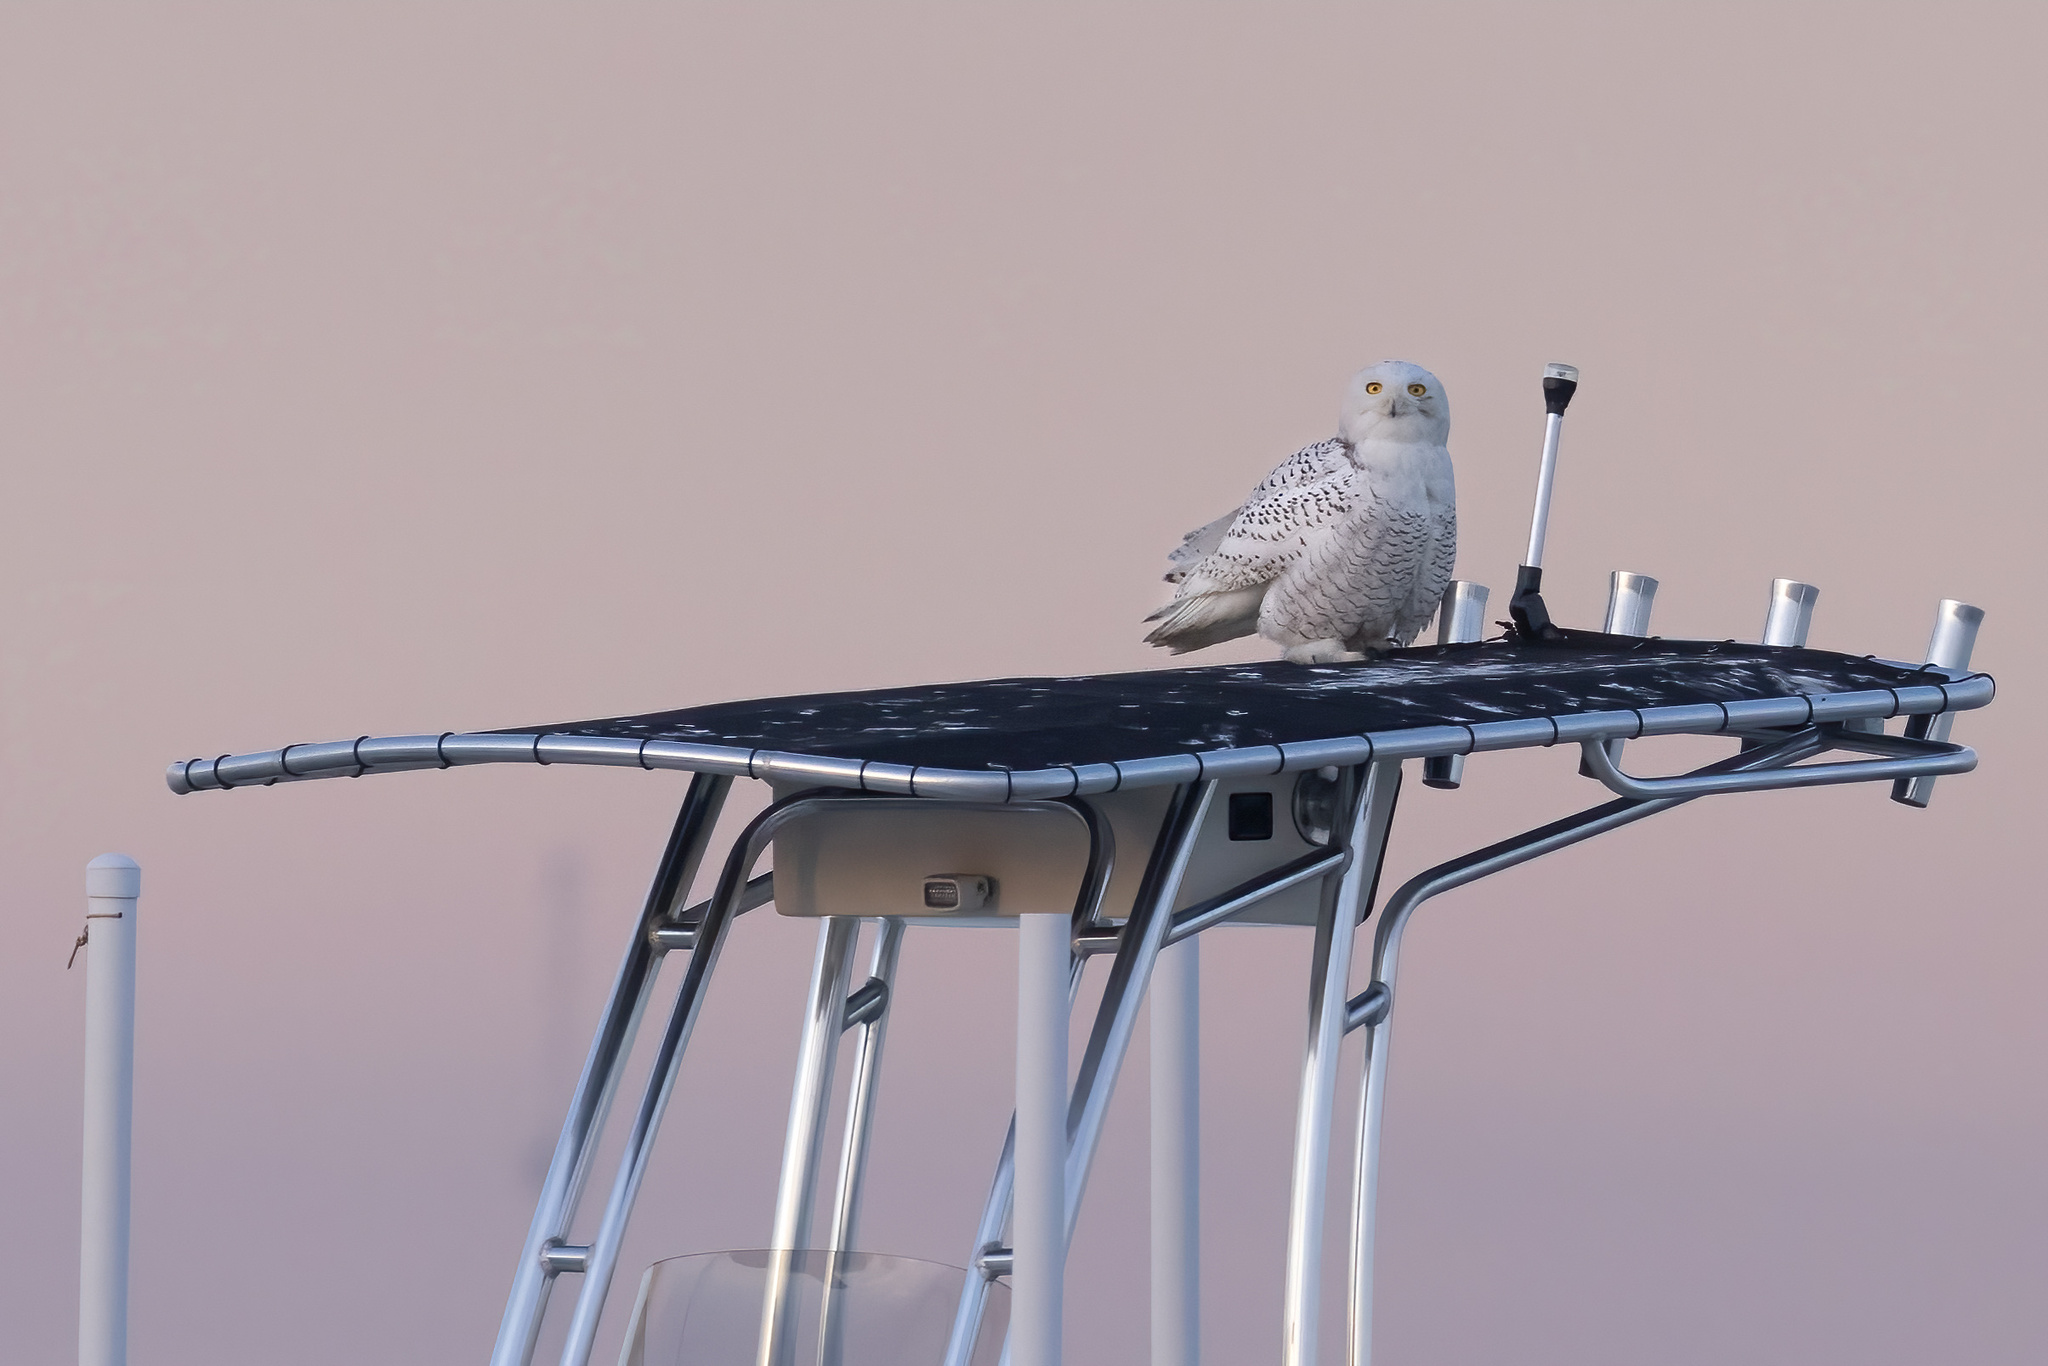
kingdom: Animalia
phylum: Chordata
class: Aves
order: Strigiformes
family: Strigidae
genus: Bubo
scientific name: Bubo scandiacus
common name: Snowy owl
